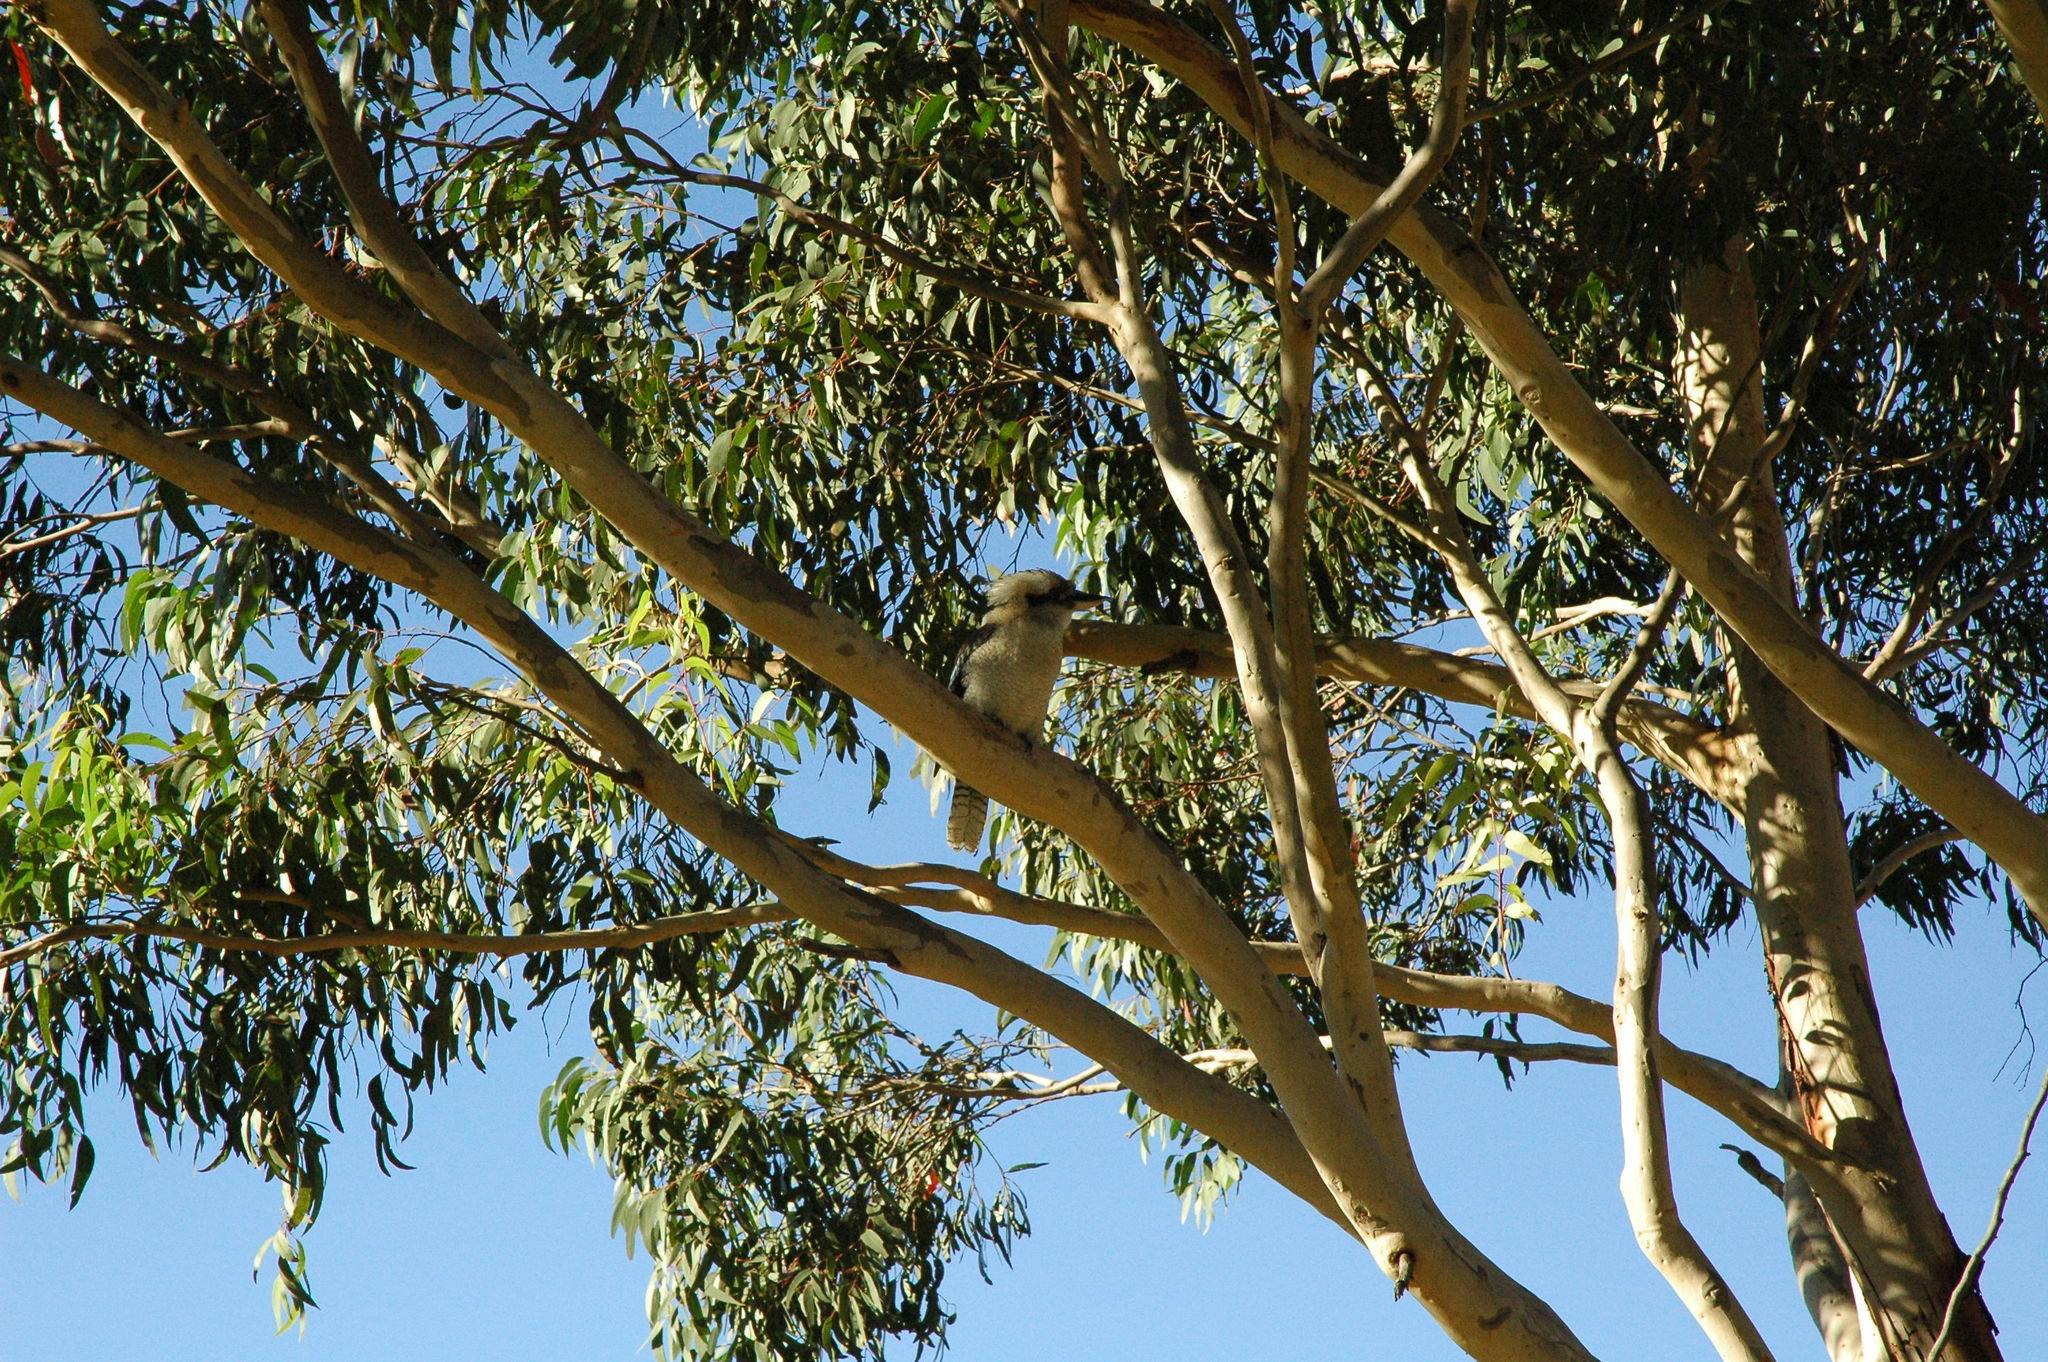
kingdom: Animalia
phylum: Chordata
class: Aves
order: Coraciiformes
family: Alcedinidae
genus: Dacelo
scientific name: Dacelo novaeguineae
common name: Laughing kookaburra
